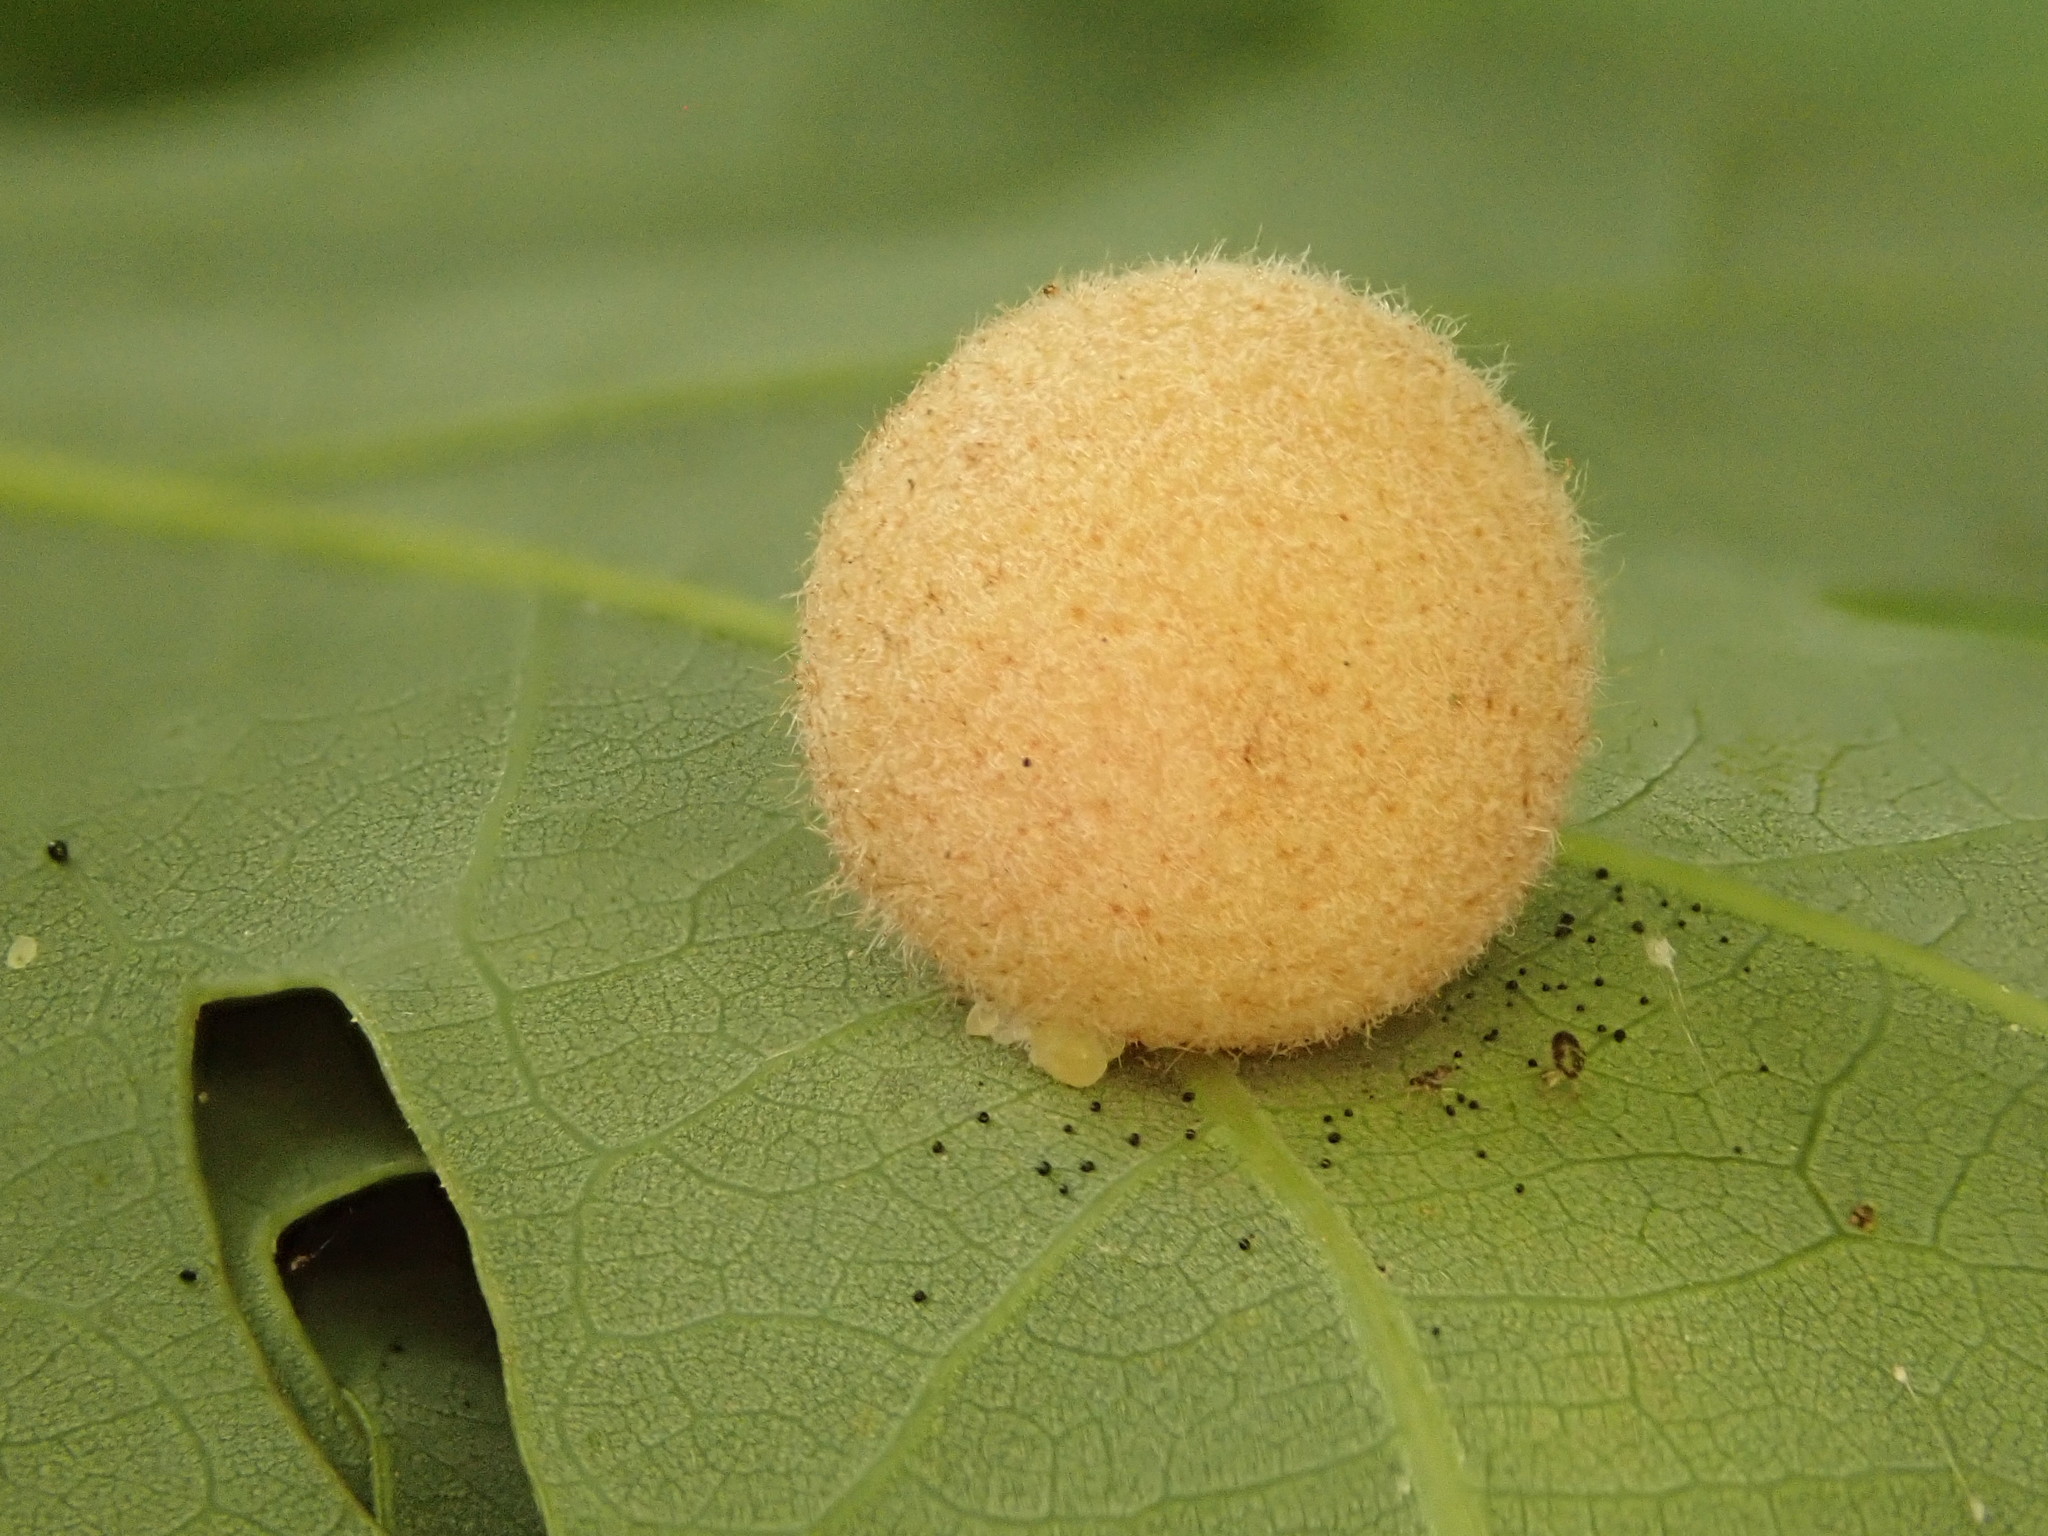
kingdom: Animalia
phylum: Arthropoda
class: Insecta
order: Hymenoptera
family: Cynipidae
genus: Philonix
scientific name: Philonix fulvicollis
